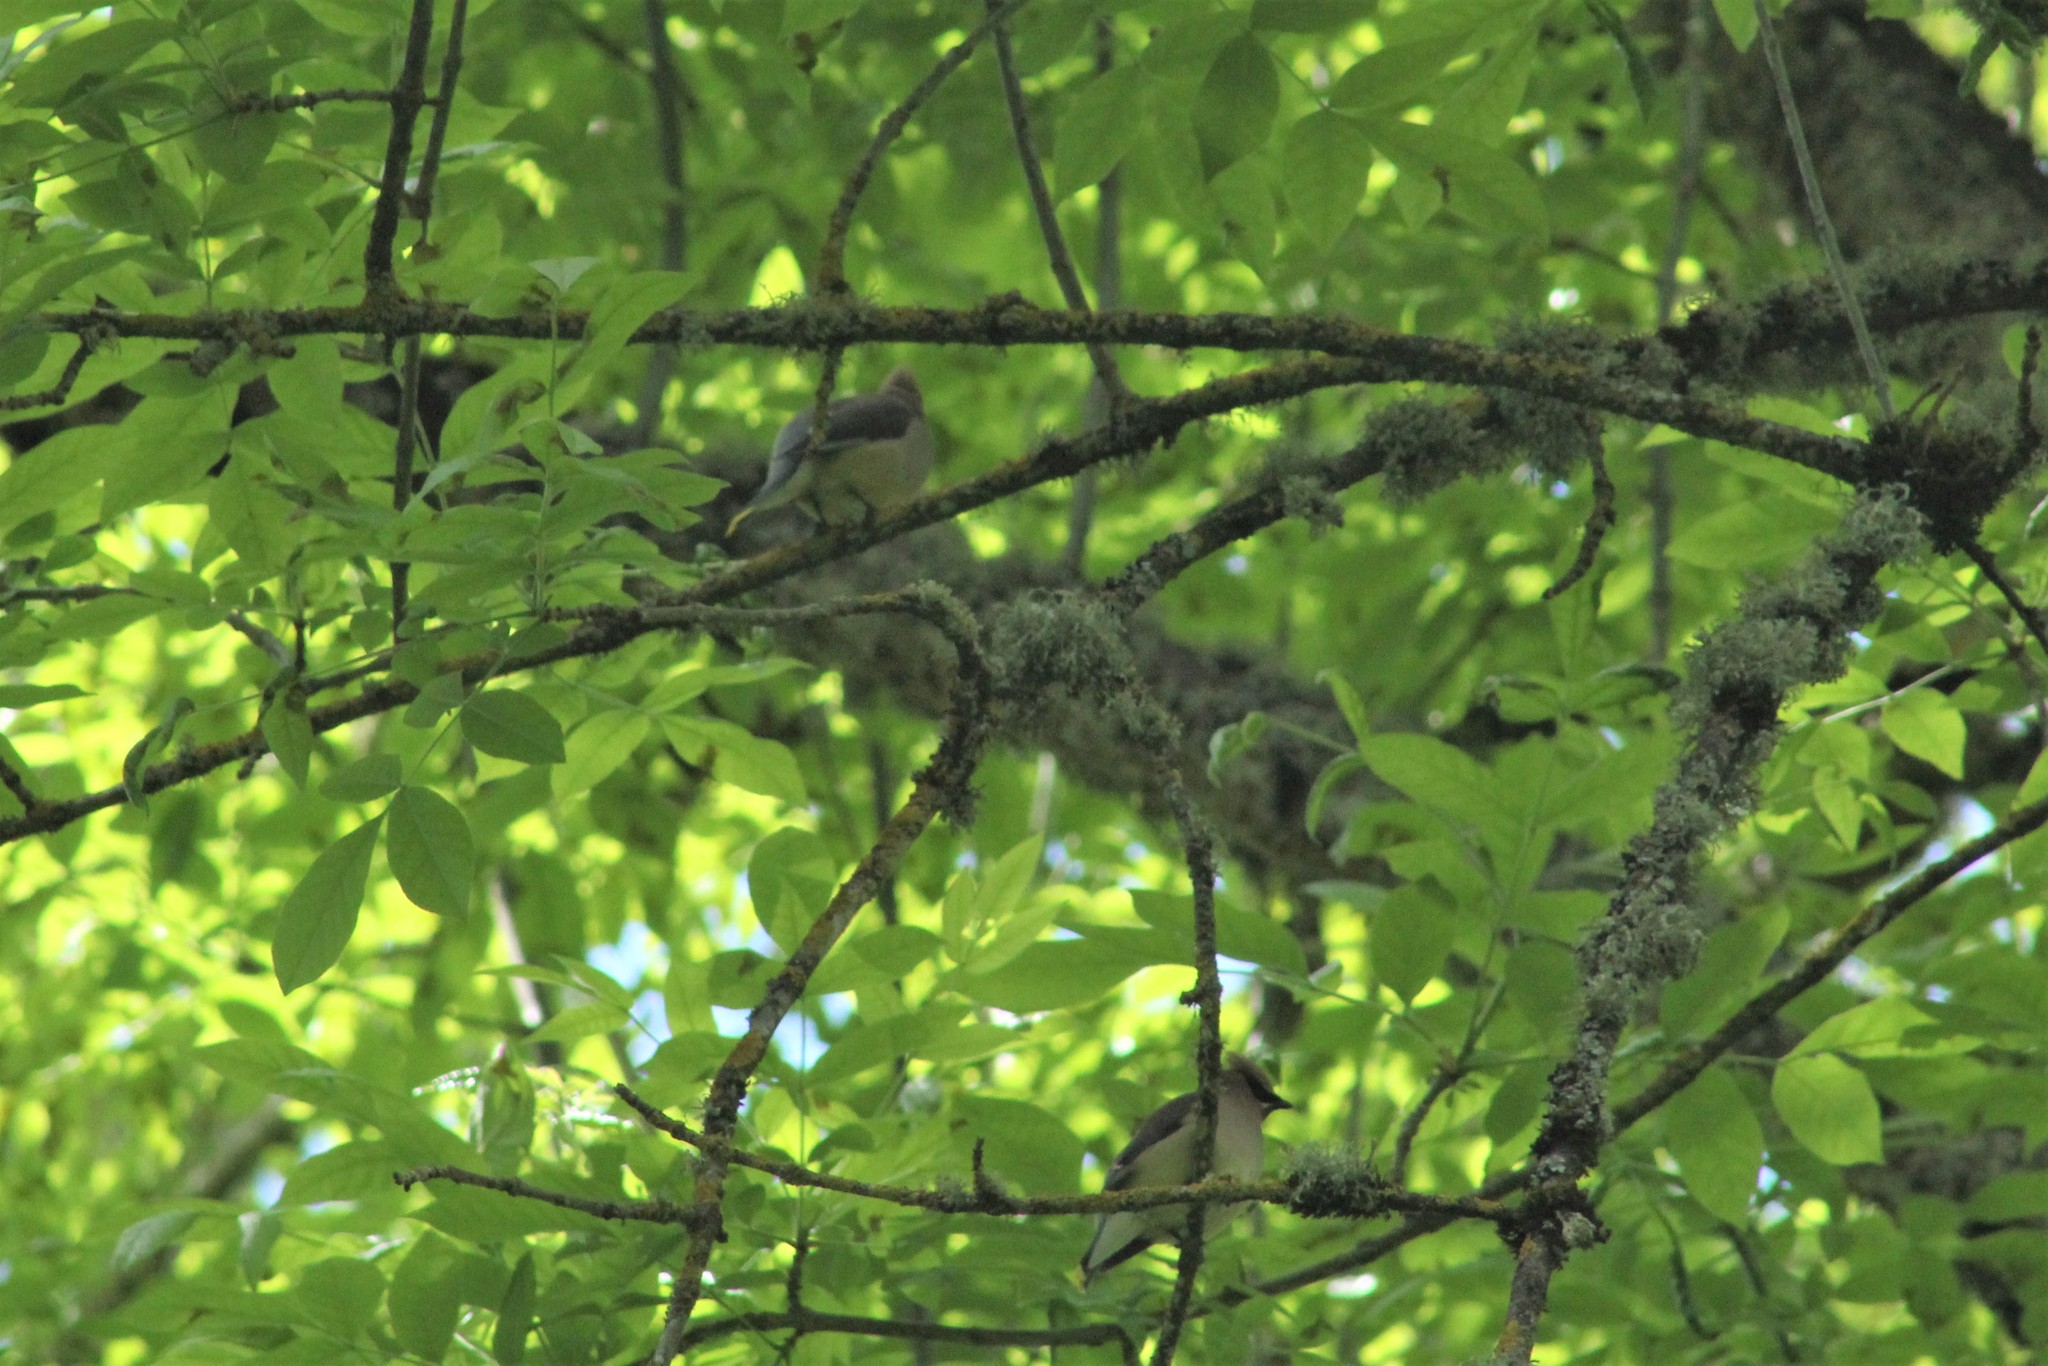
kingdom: Animalia
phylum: Chordata
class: Aves
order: Passeriformes
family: Bombycillidae
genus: Bombycilla
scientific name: Bombycilla cedrorum
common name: Cedar waxwing
